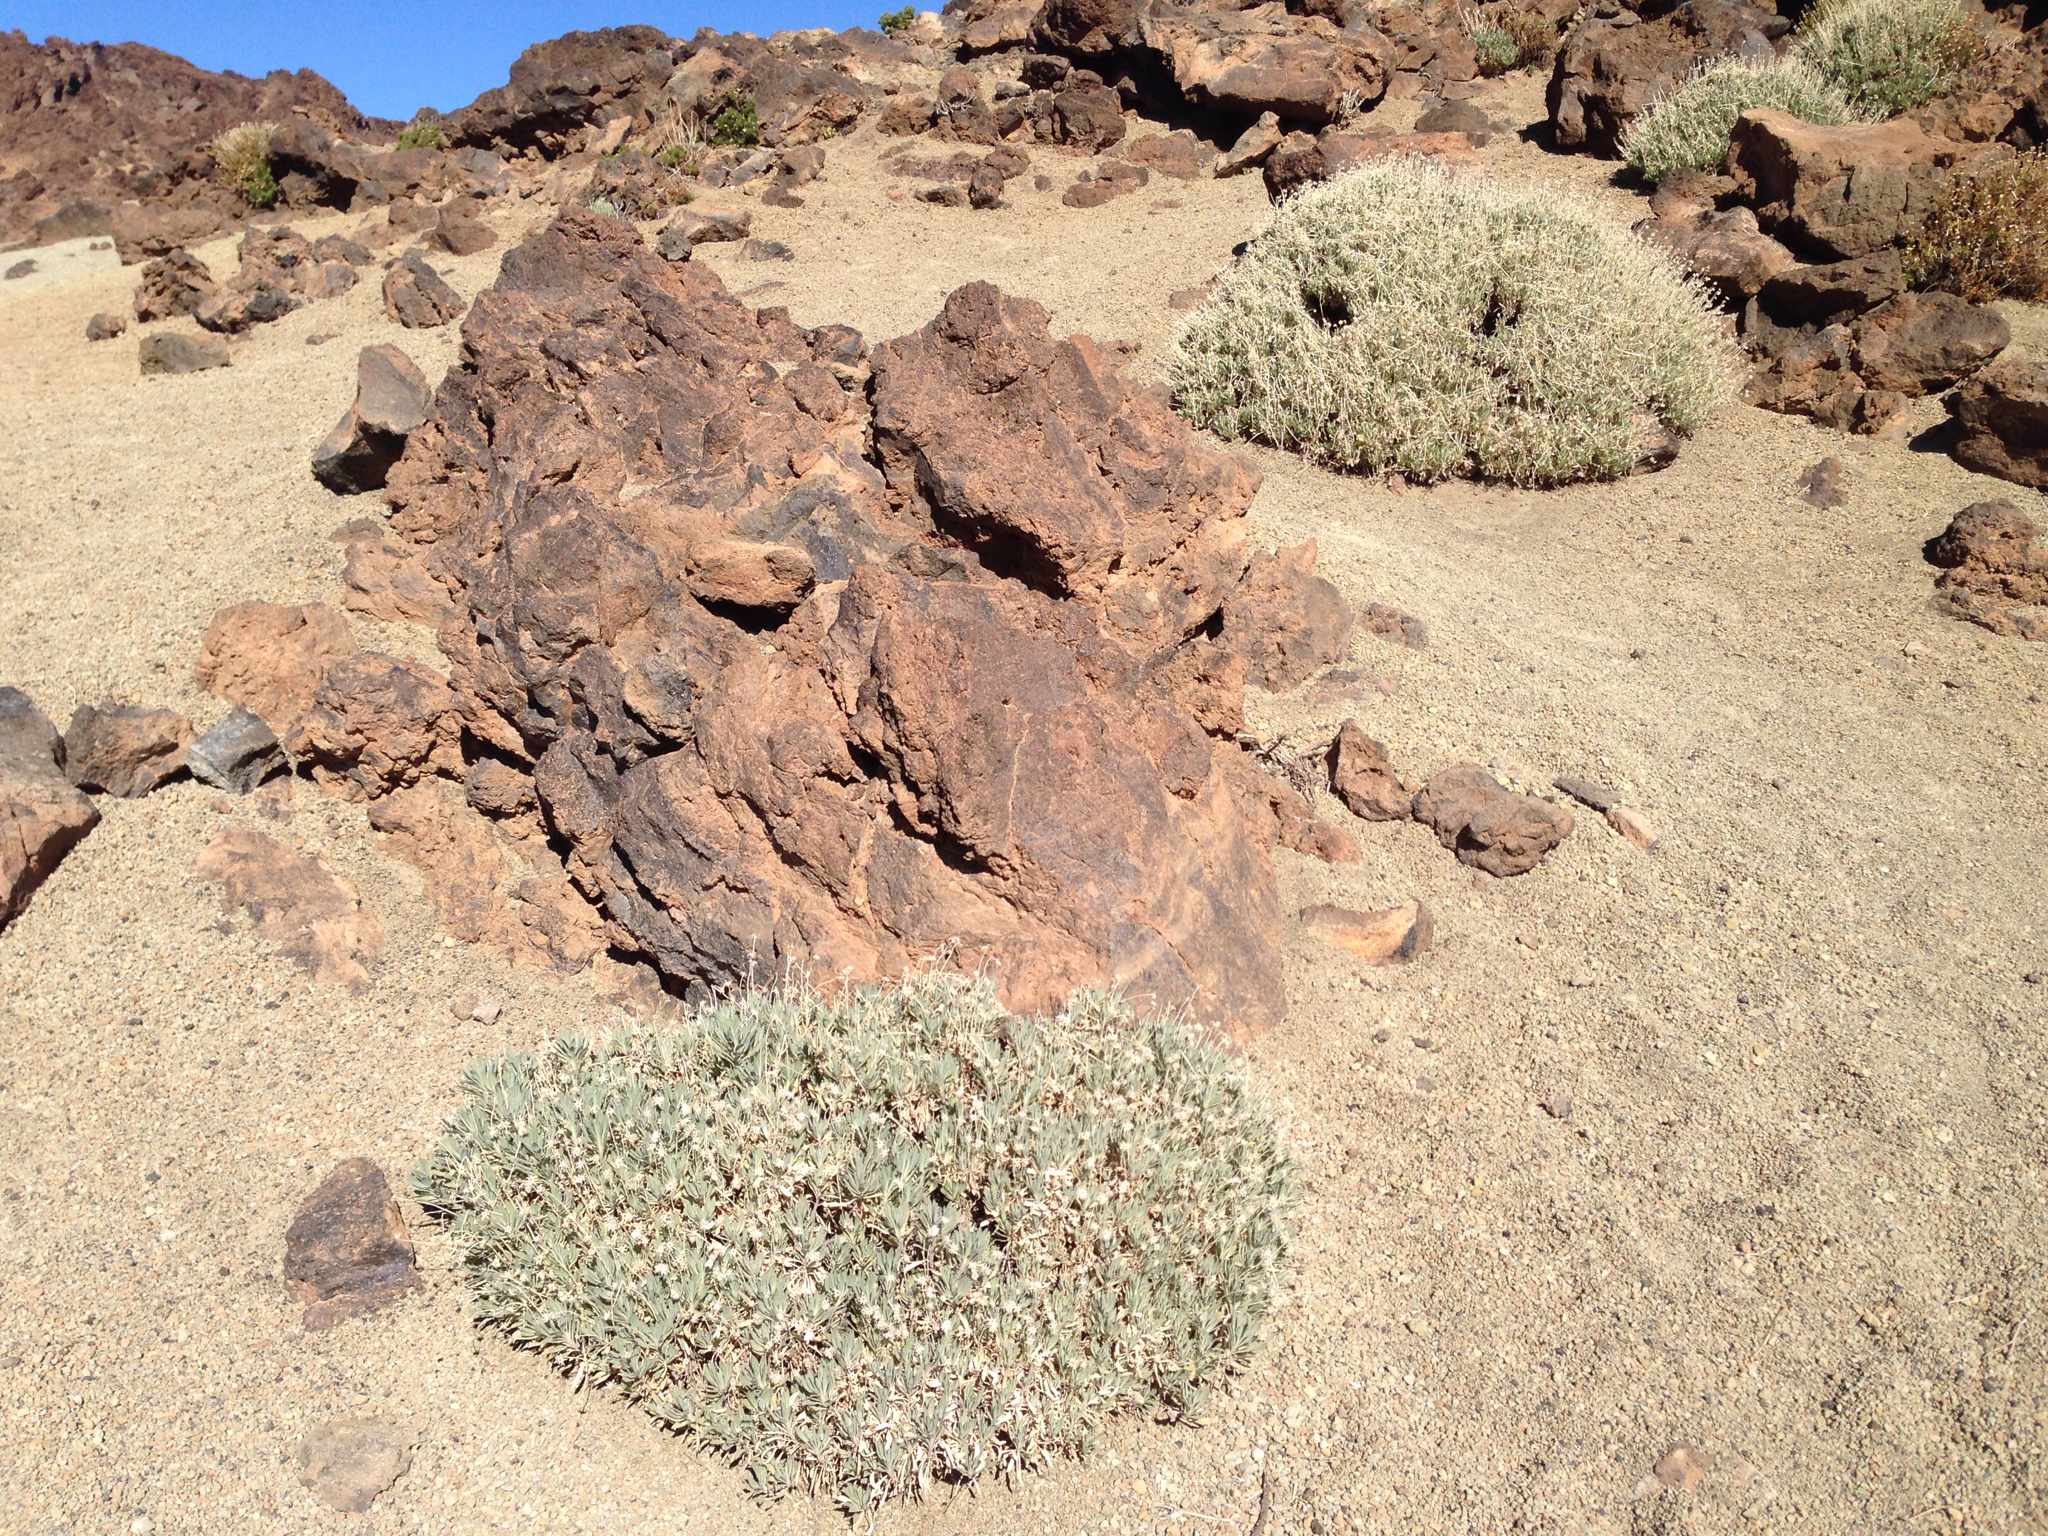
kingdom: Plantae
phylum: Tracheophyta
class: Magnoliopsida
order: Dipsacales
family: Caprifoliaceae
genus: Pterocephalus
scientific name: Pterocephalus lasiospermus
